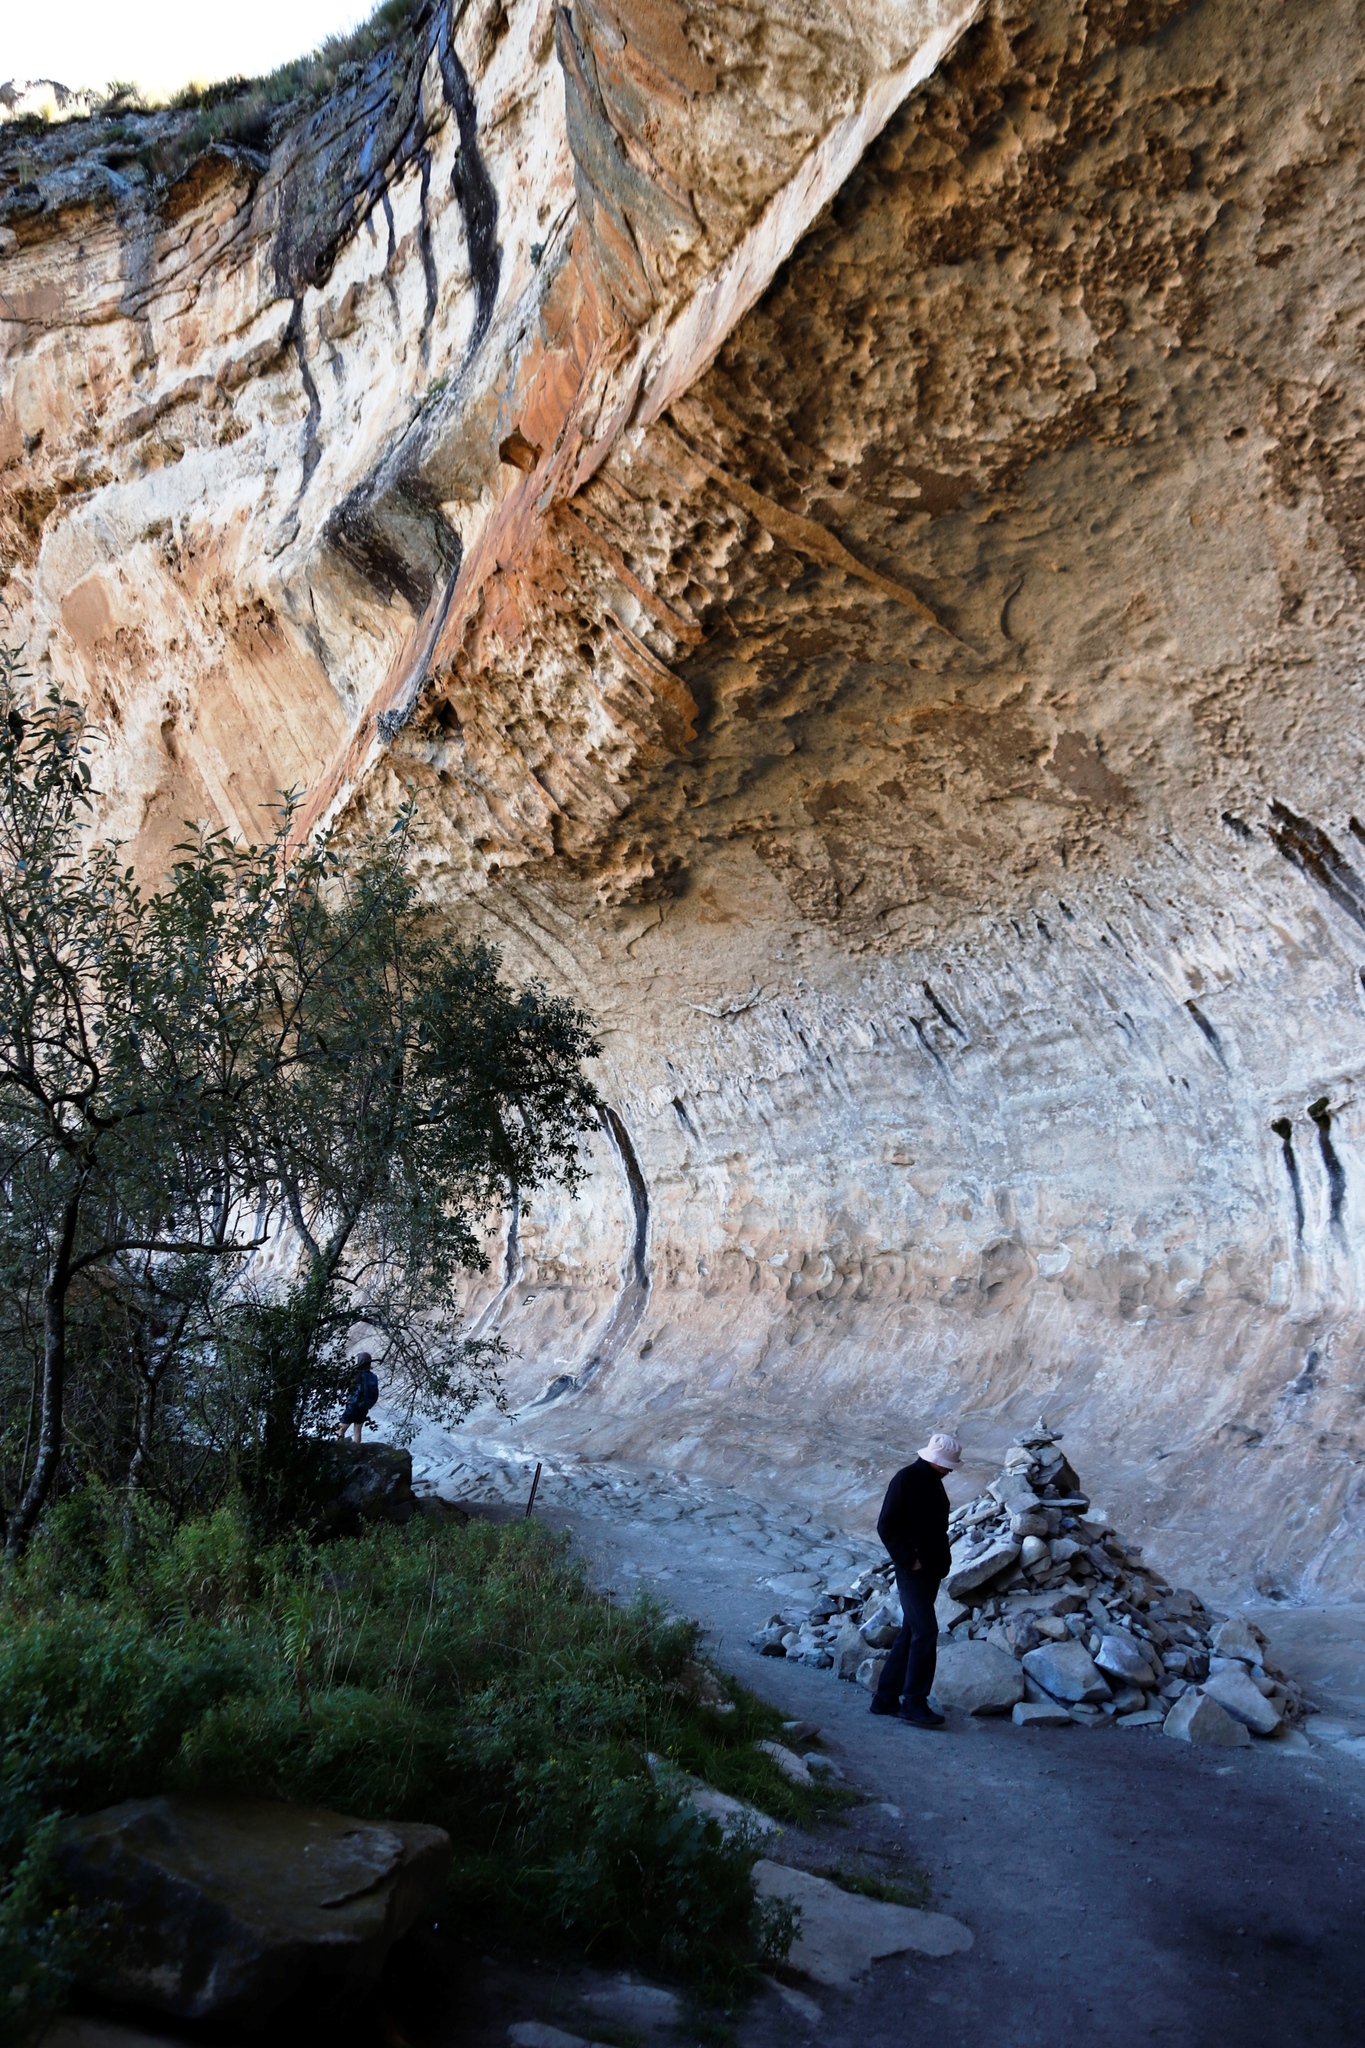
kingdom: Plantae
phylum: Tracheophyta
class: Magnoliopsida
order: Malpighiales
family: Achariaceae
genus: Kiggelaria
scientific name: Kiggelaria africana
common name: Wild peach
